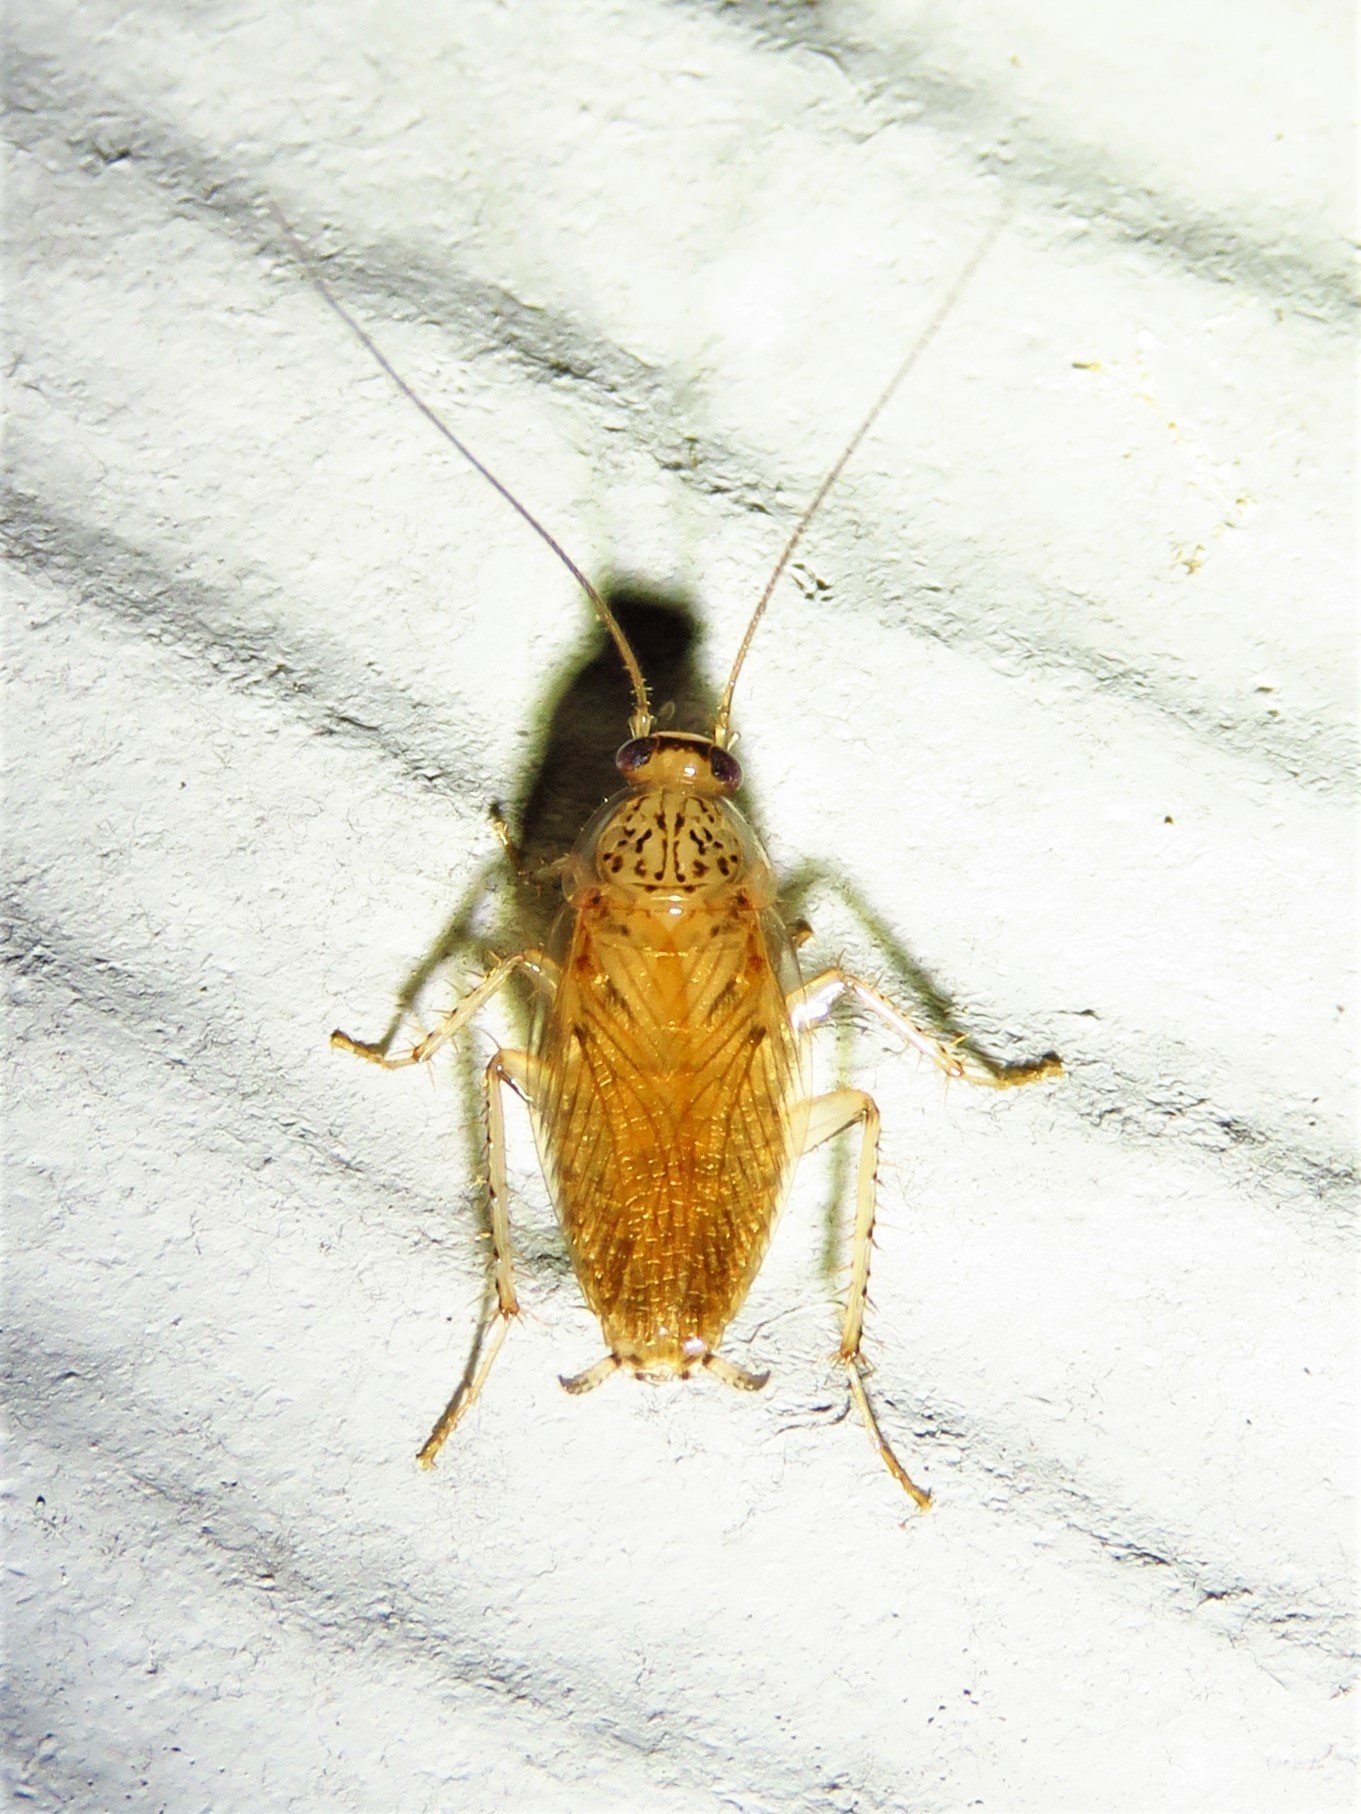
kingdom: Animalia
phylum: Arthropoda
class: Insecta
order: Blattodea
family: Ectobiidae
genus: Cariblatta
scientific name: Cariblatta lutea
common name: Small yellow cockroach
